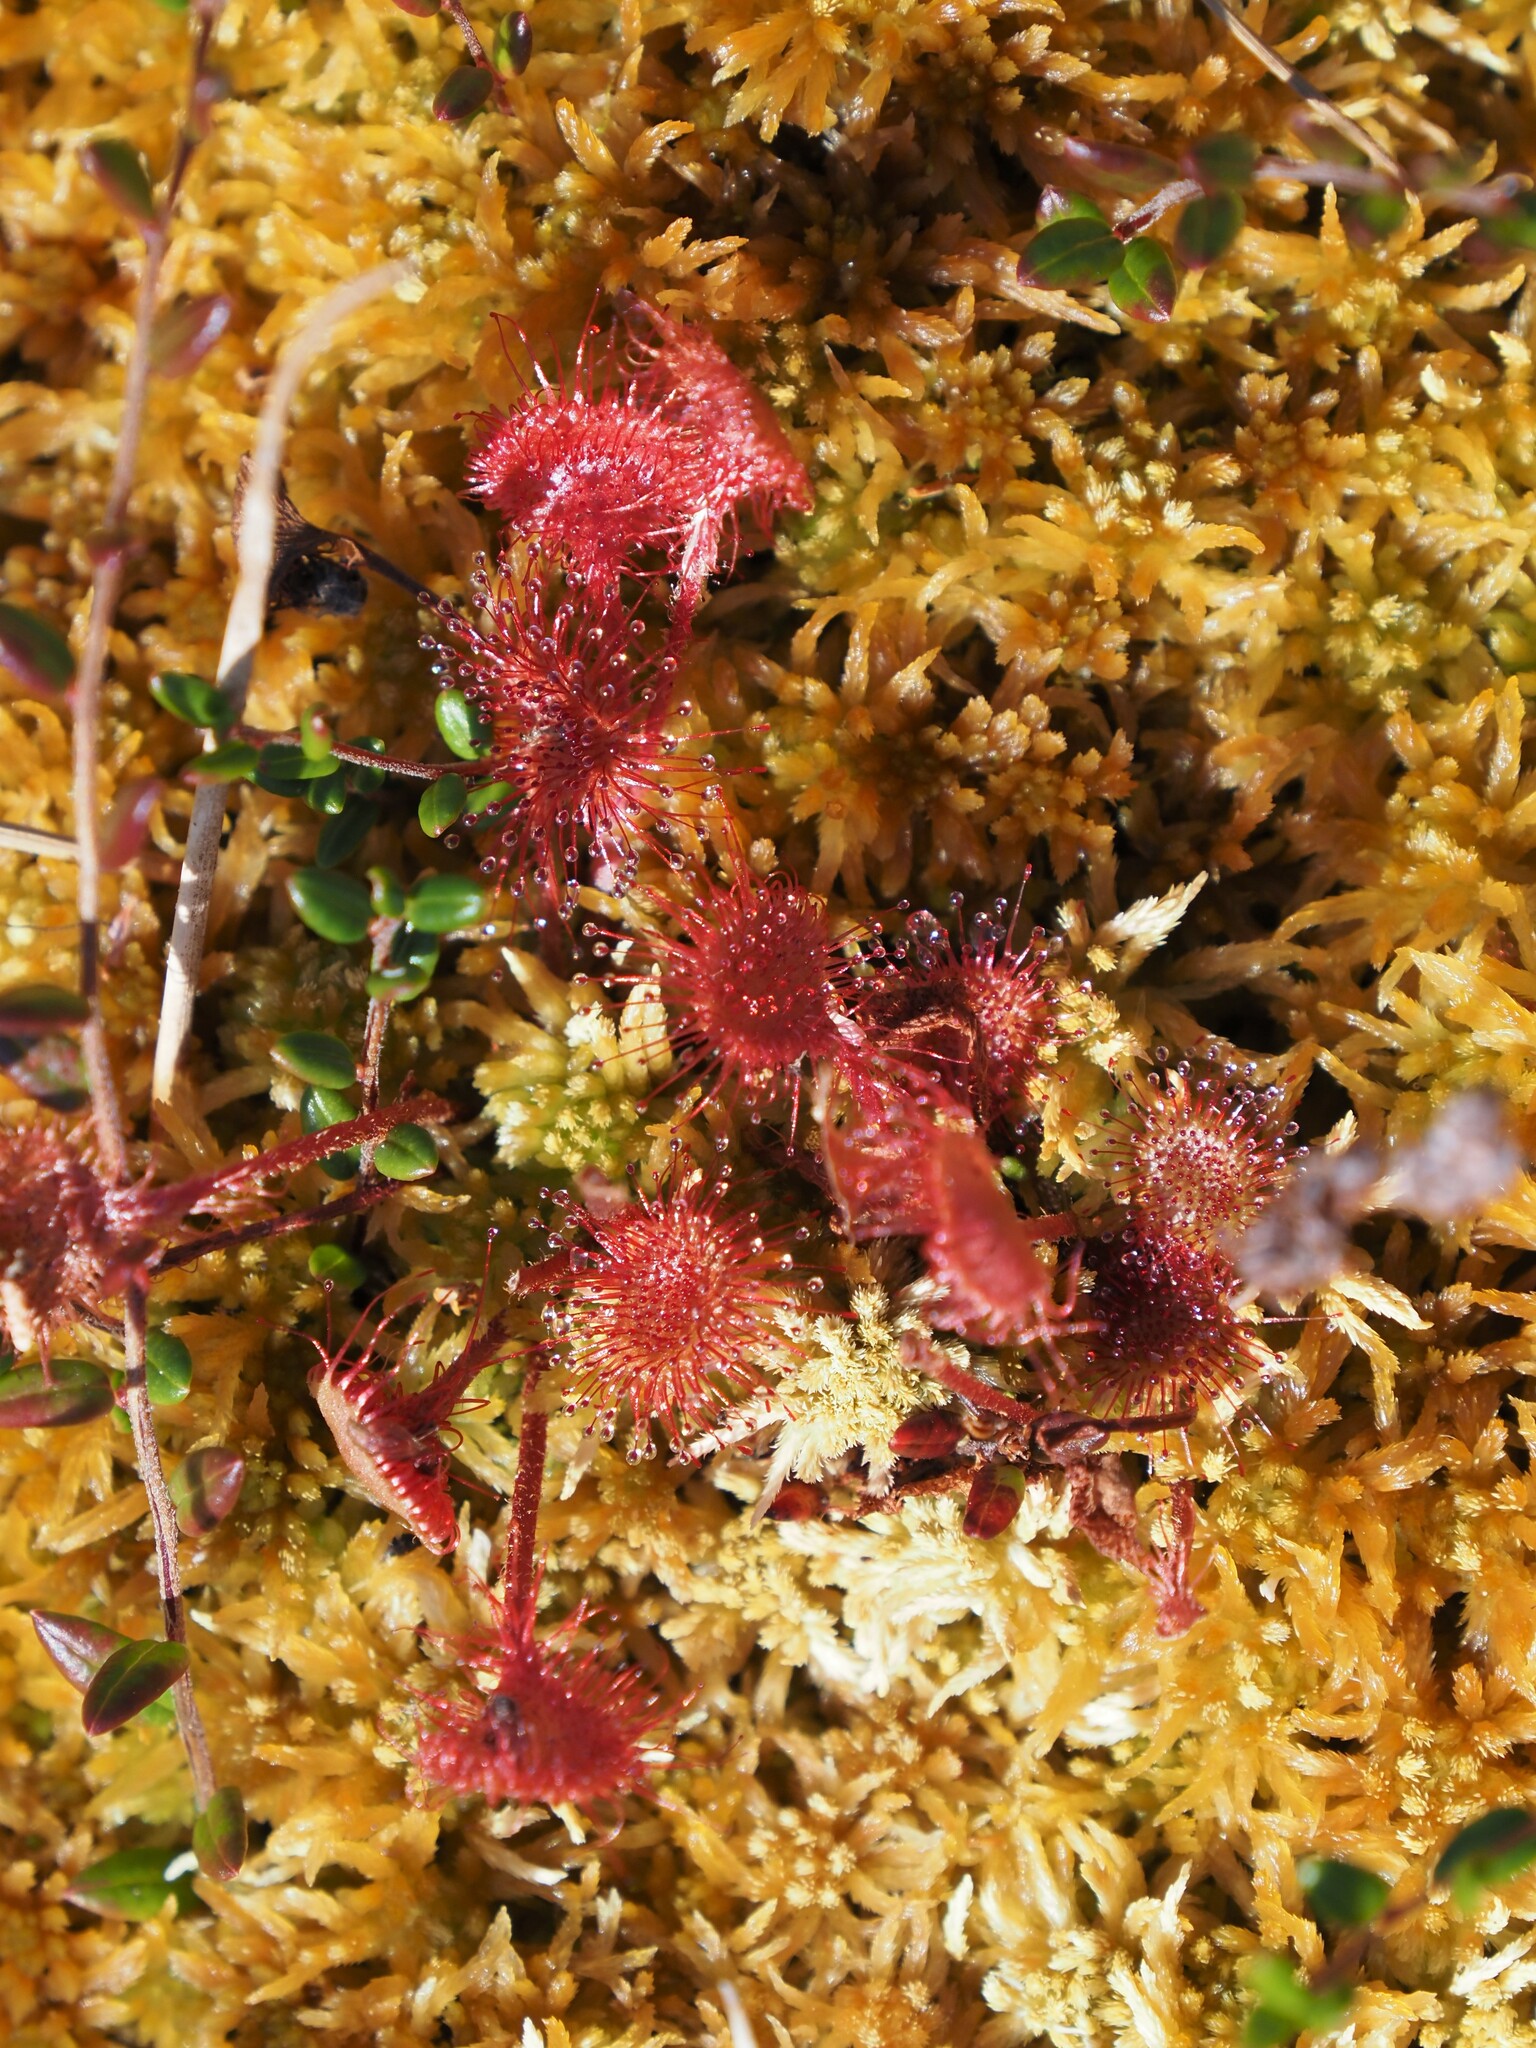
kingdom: Plantae
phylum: Tracheophyta
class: Magnoliopsida
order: Caryophyllales
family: Droseraceae
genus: Drosera
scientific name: Drosera rotundifolia
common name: Round-leaved sundew
